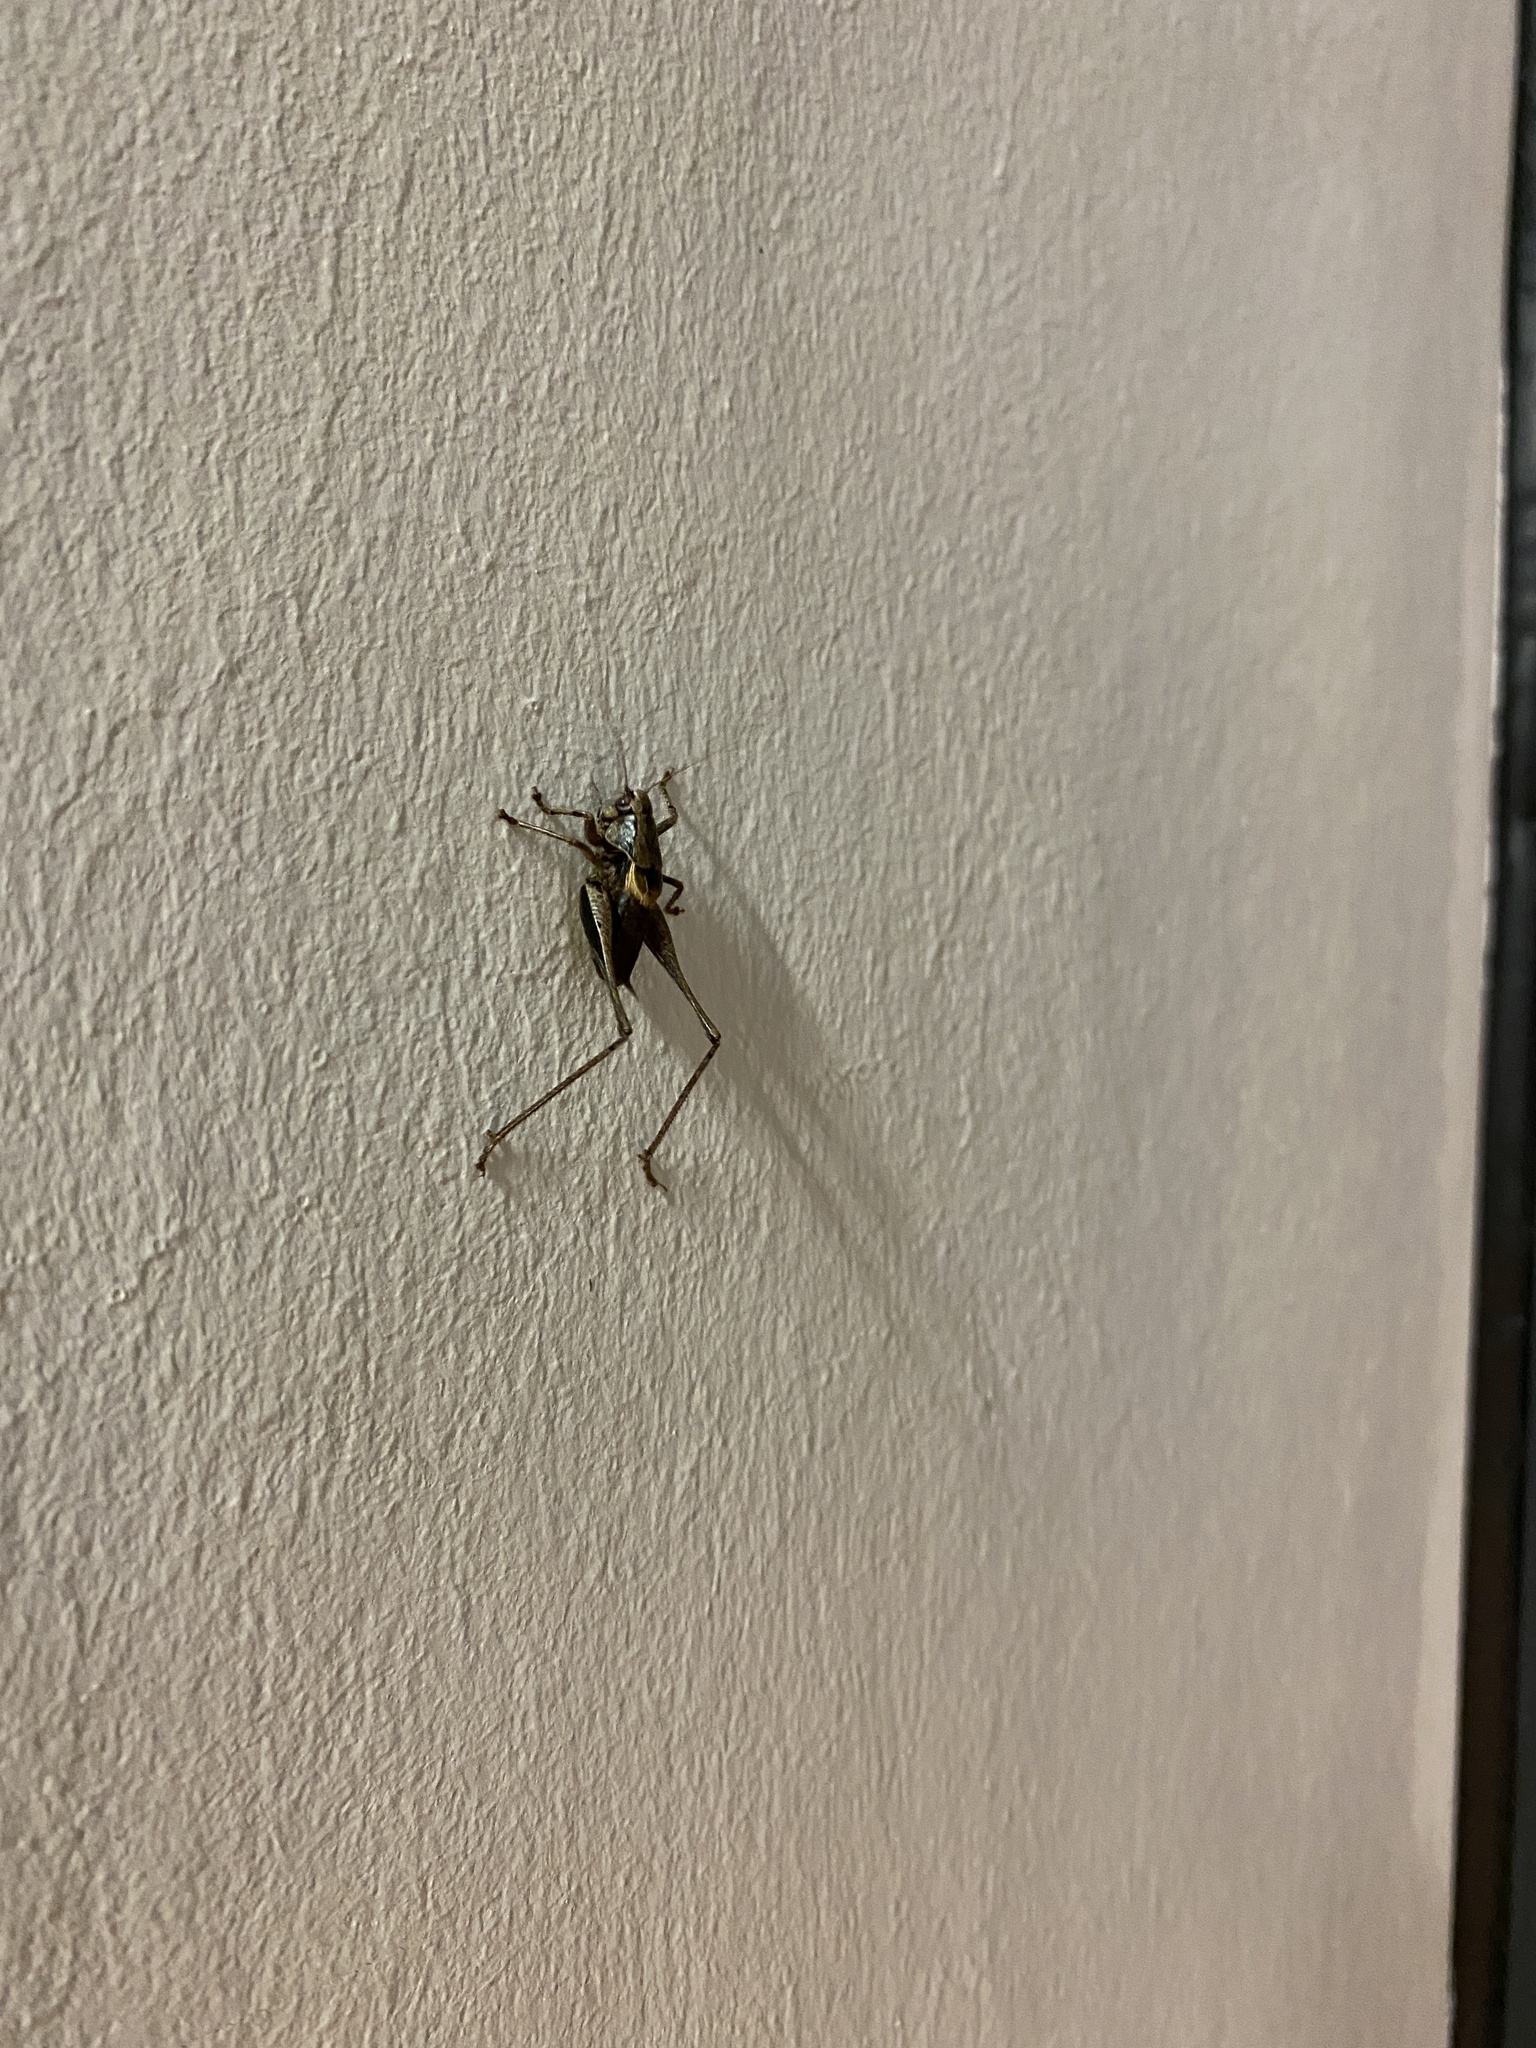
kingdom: Animalia
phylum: Arthropoda
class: Insecta
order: Orthoptera
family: Tettigoniidae
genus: Pholidoptera
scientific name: Pholidoptera griseoaptera
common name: Dark bush-cricket
